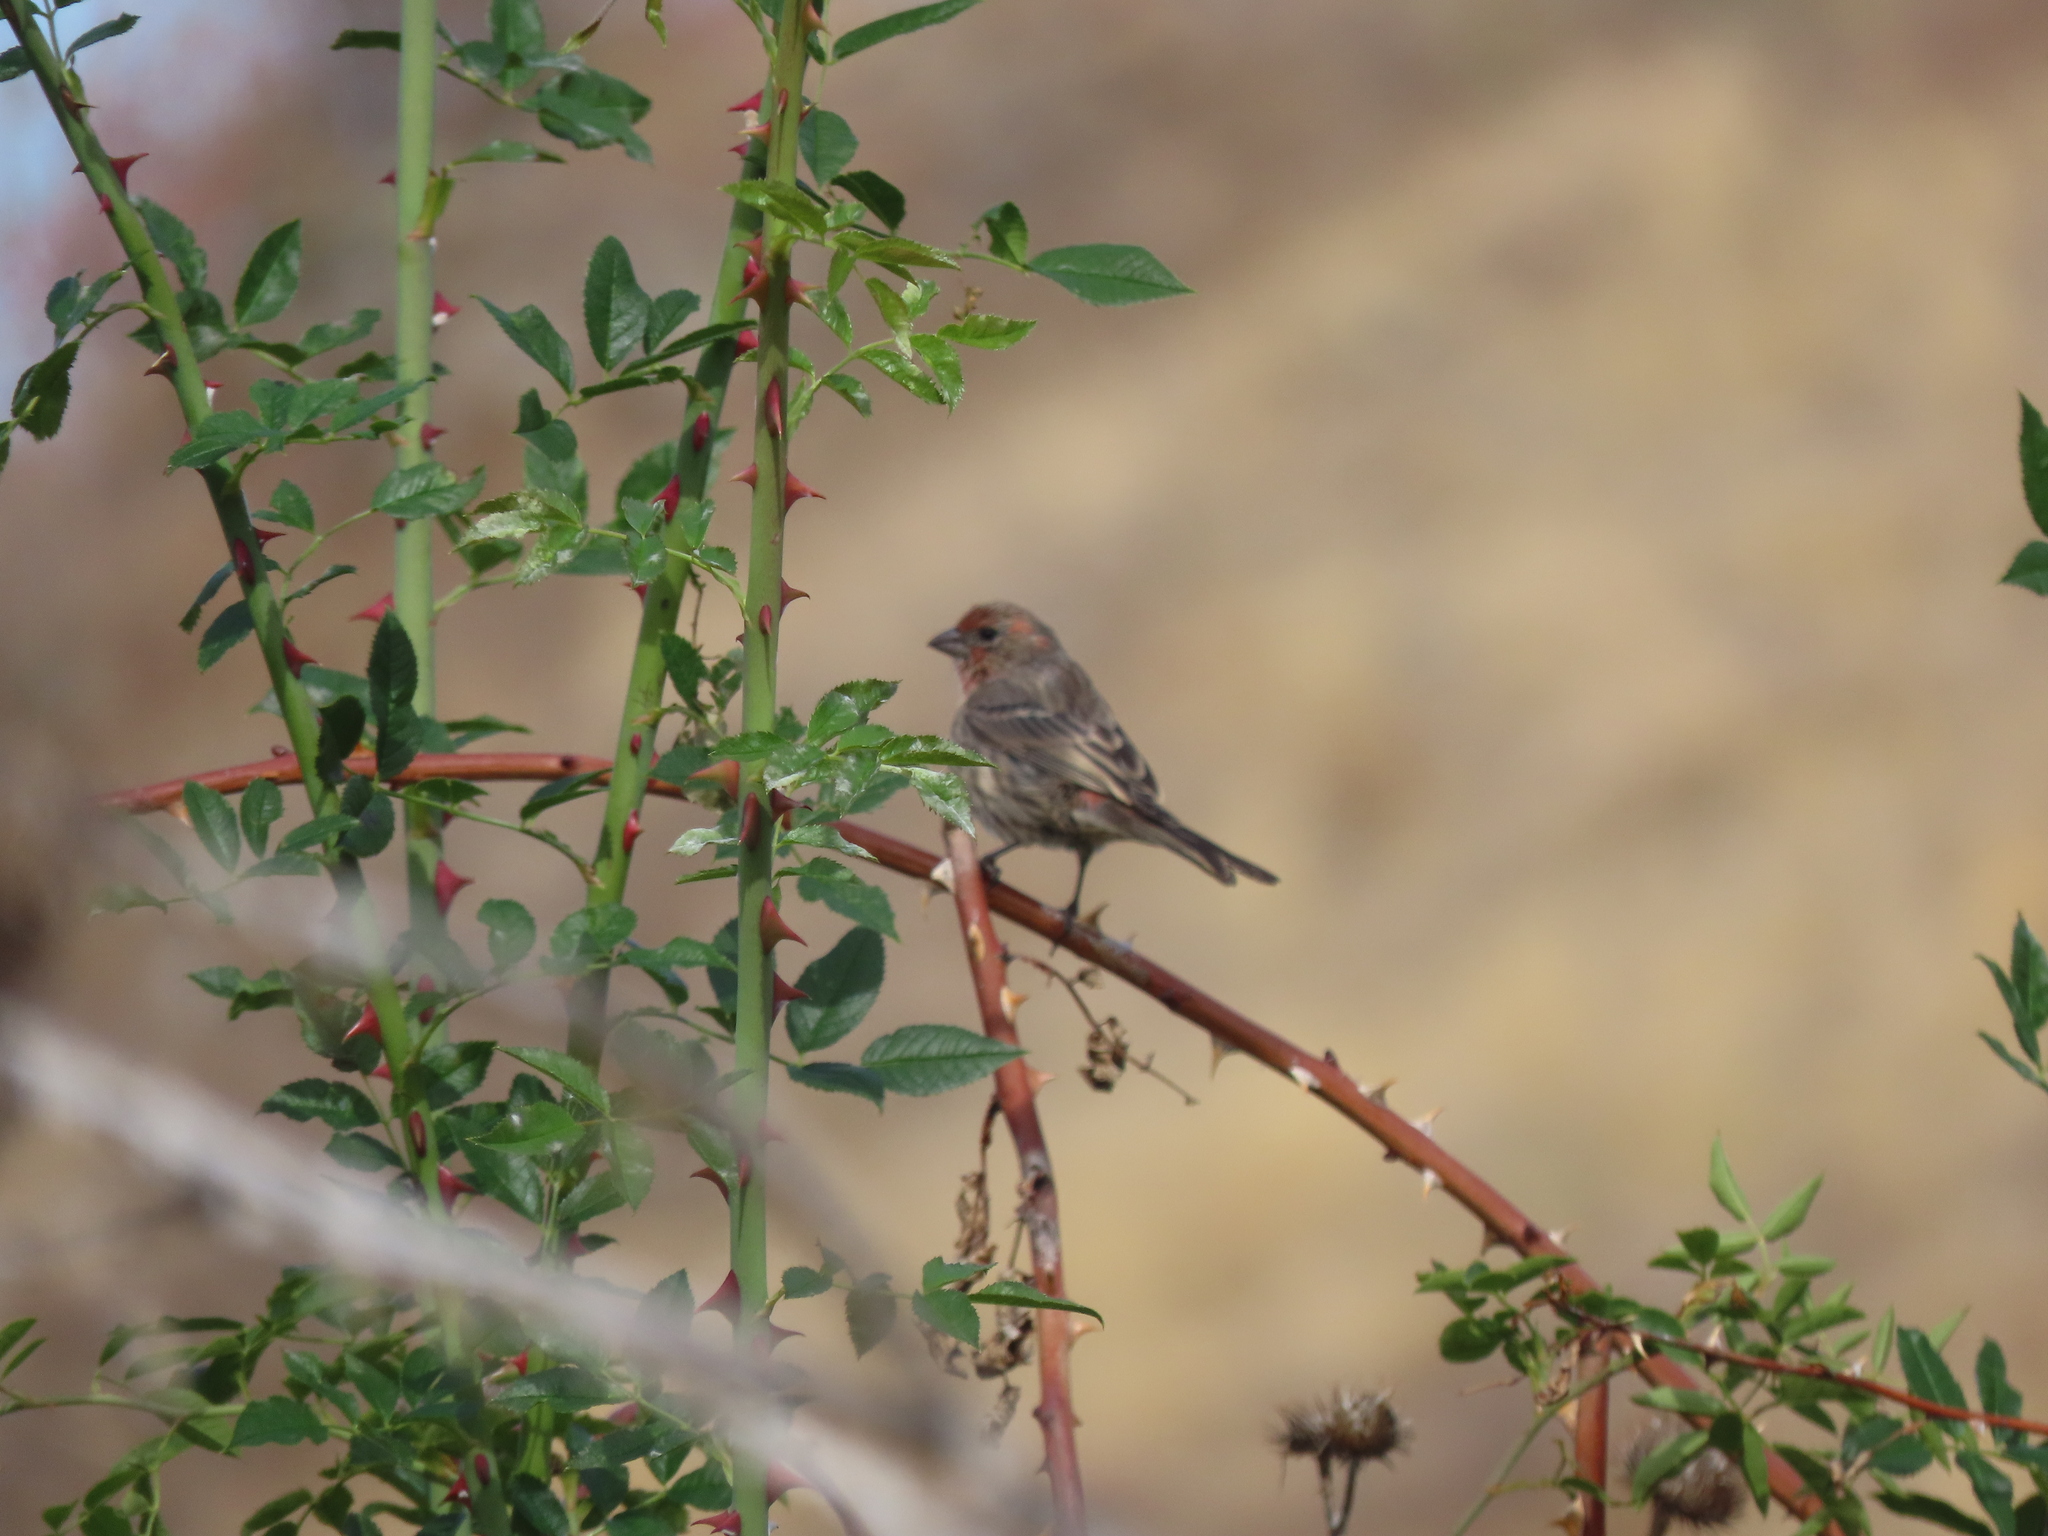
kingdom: Animalia
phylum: Chordata
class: Aves
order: Passeriformes
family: Fringillidae
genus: Haemorhous
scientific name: Haemorhous mexicanus
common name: House finch
